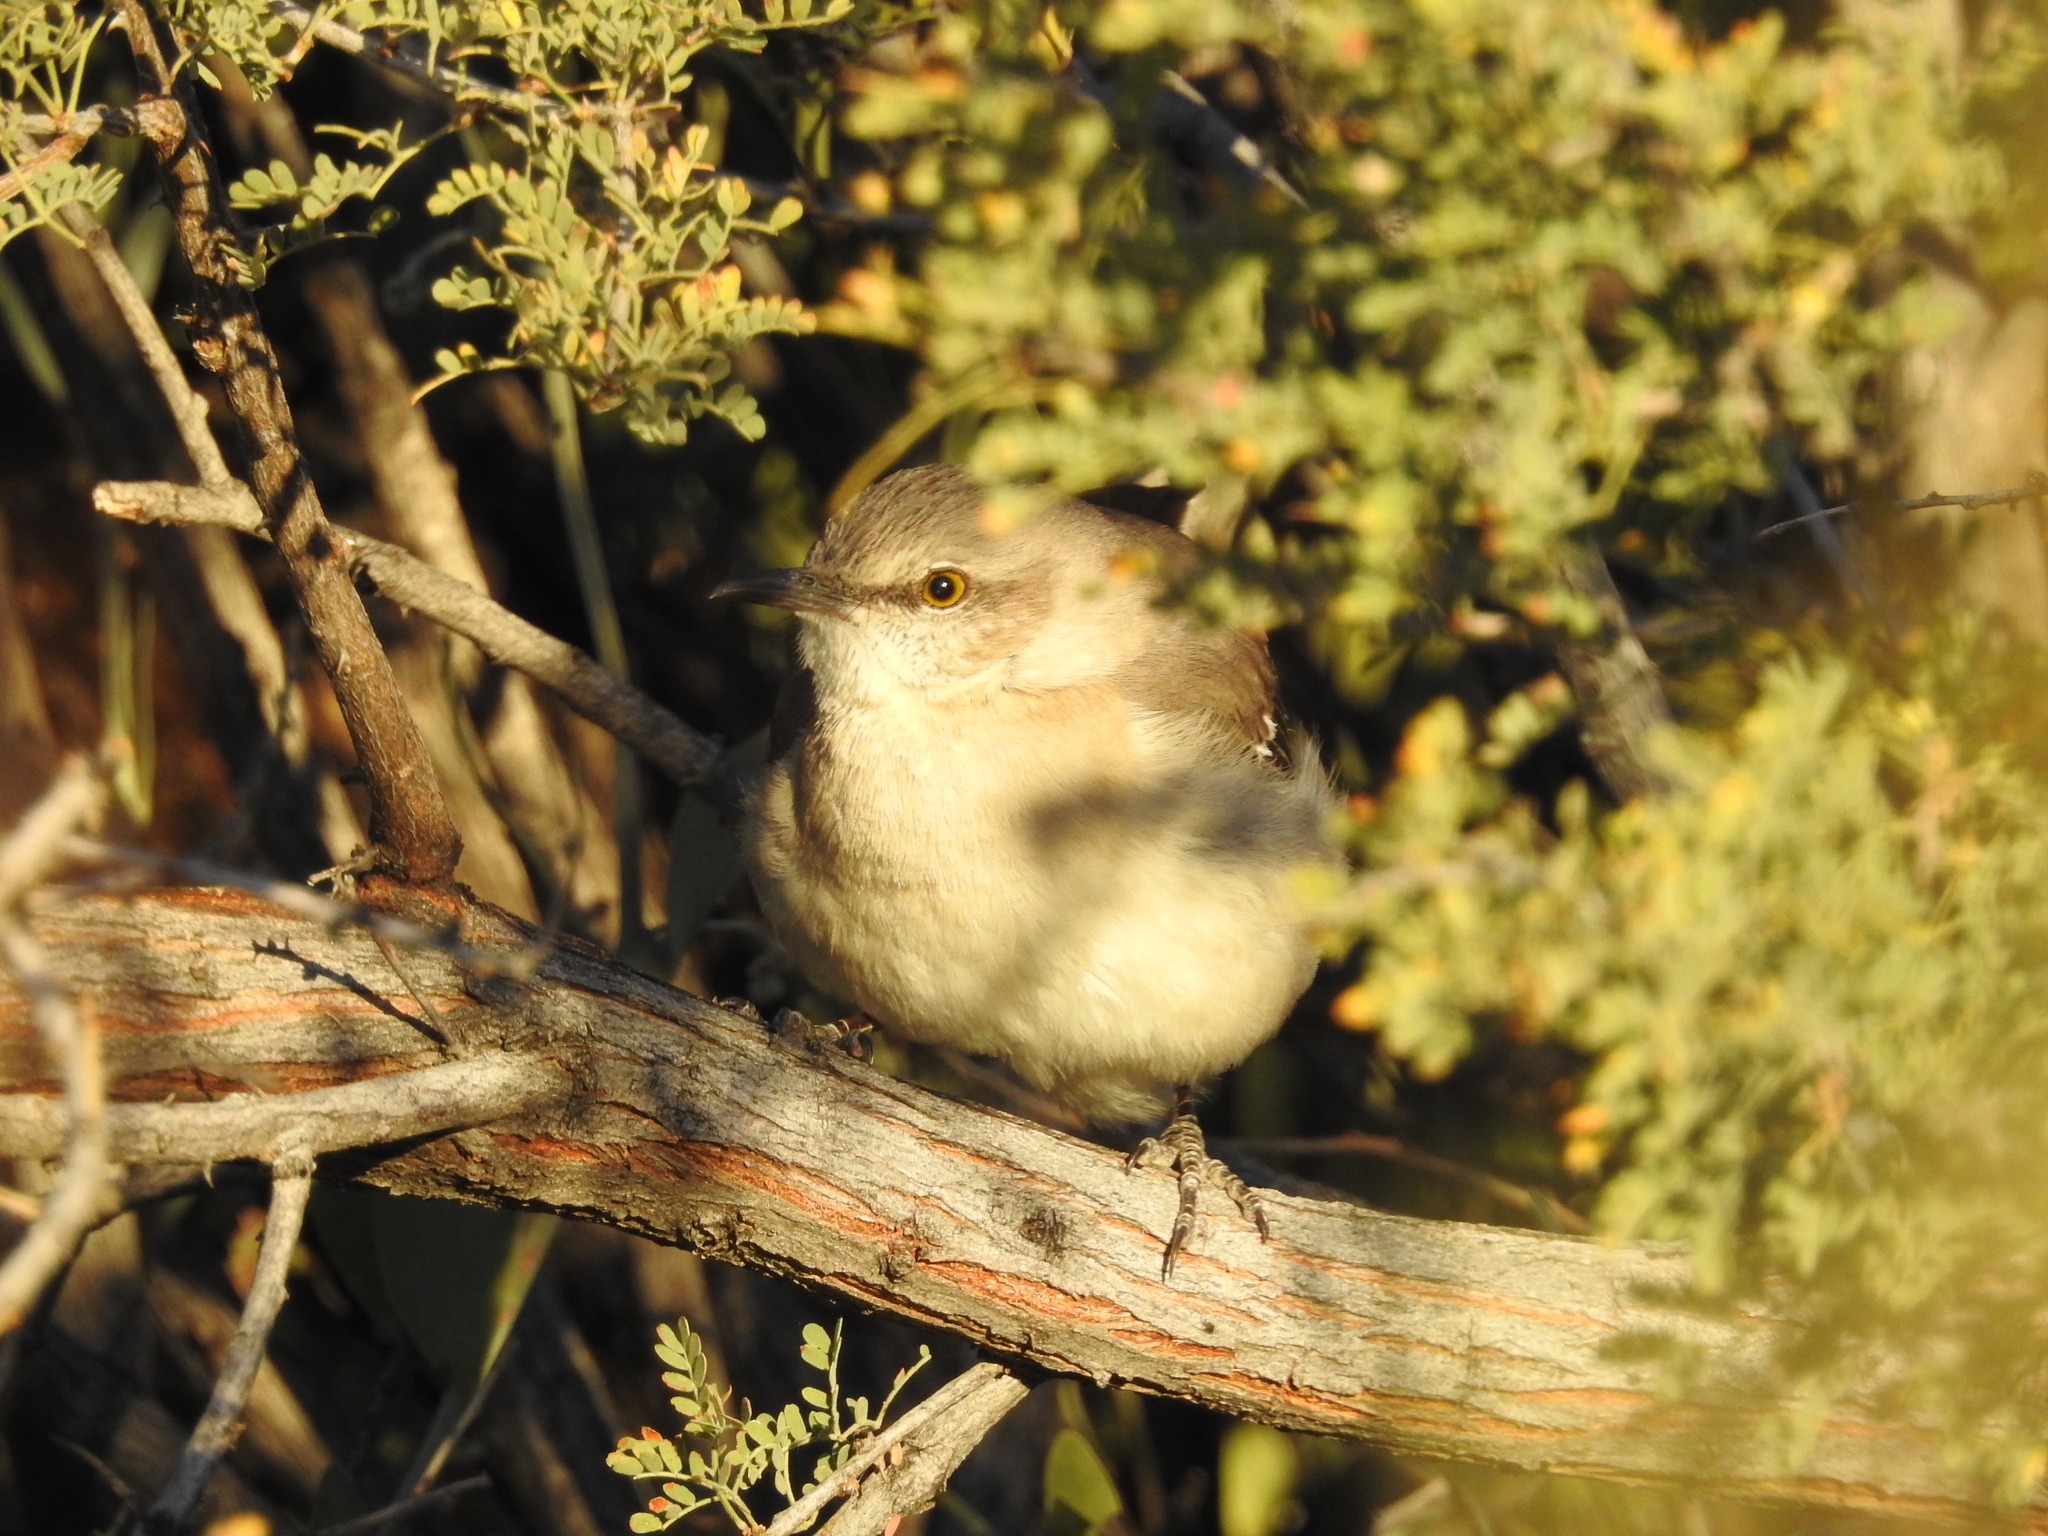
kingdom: Animalia
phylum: Chordata
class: Aves
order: Passeriformes
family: Mimidae
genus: Mimus
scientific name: Mimus polyglottos
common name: Northern mockingbird
